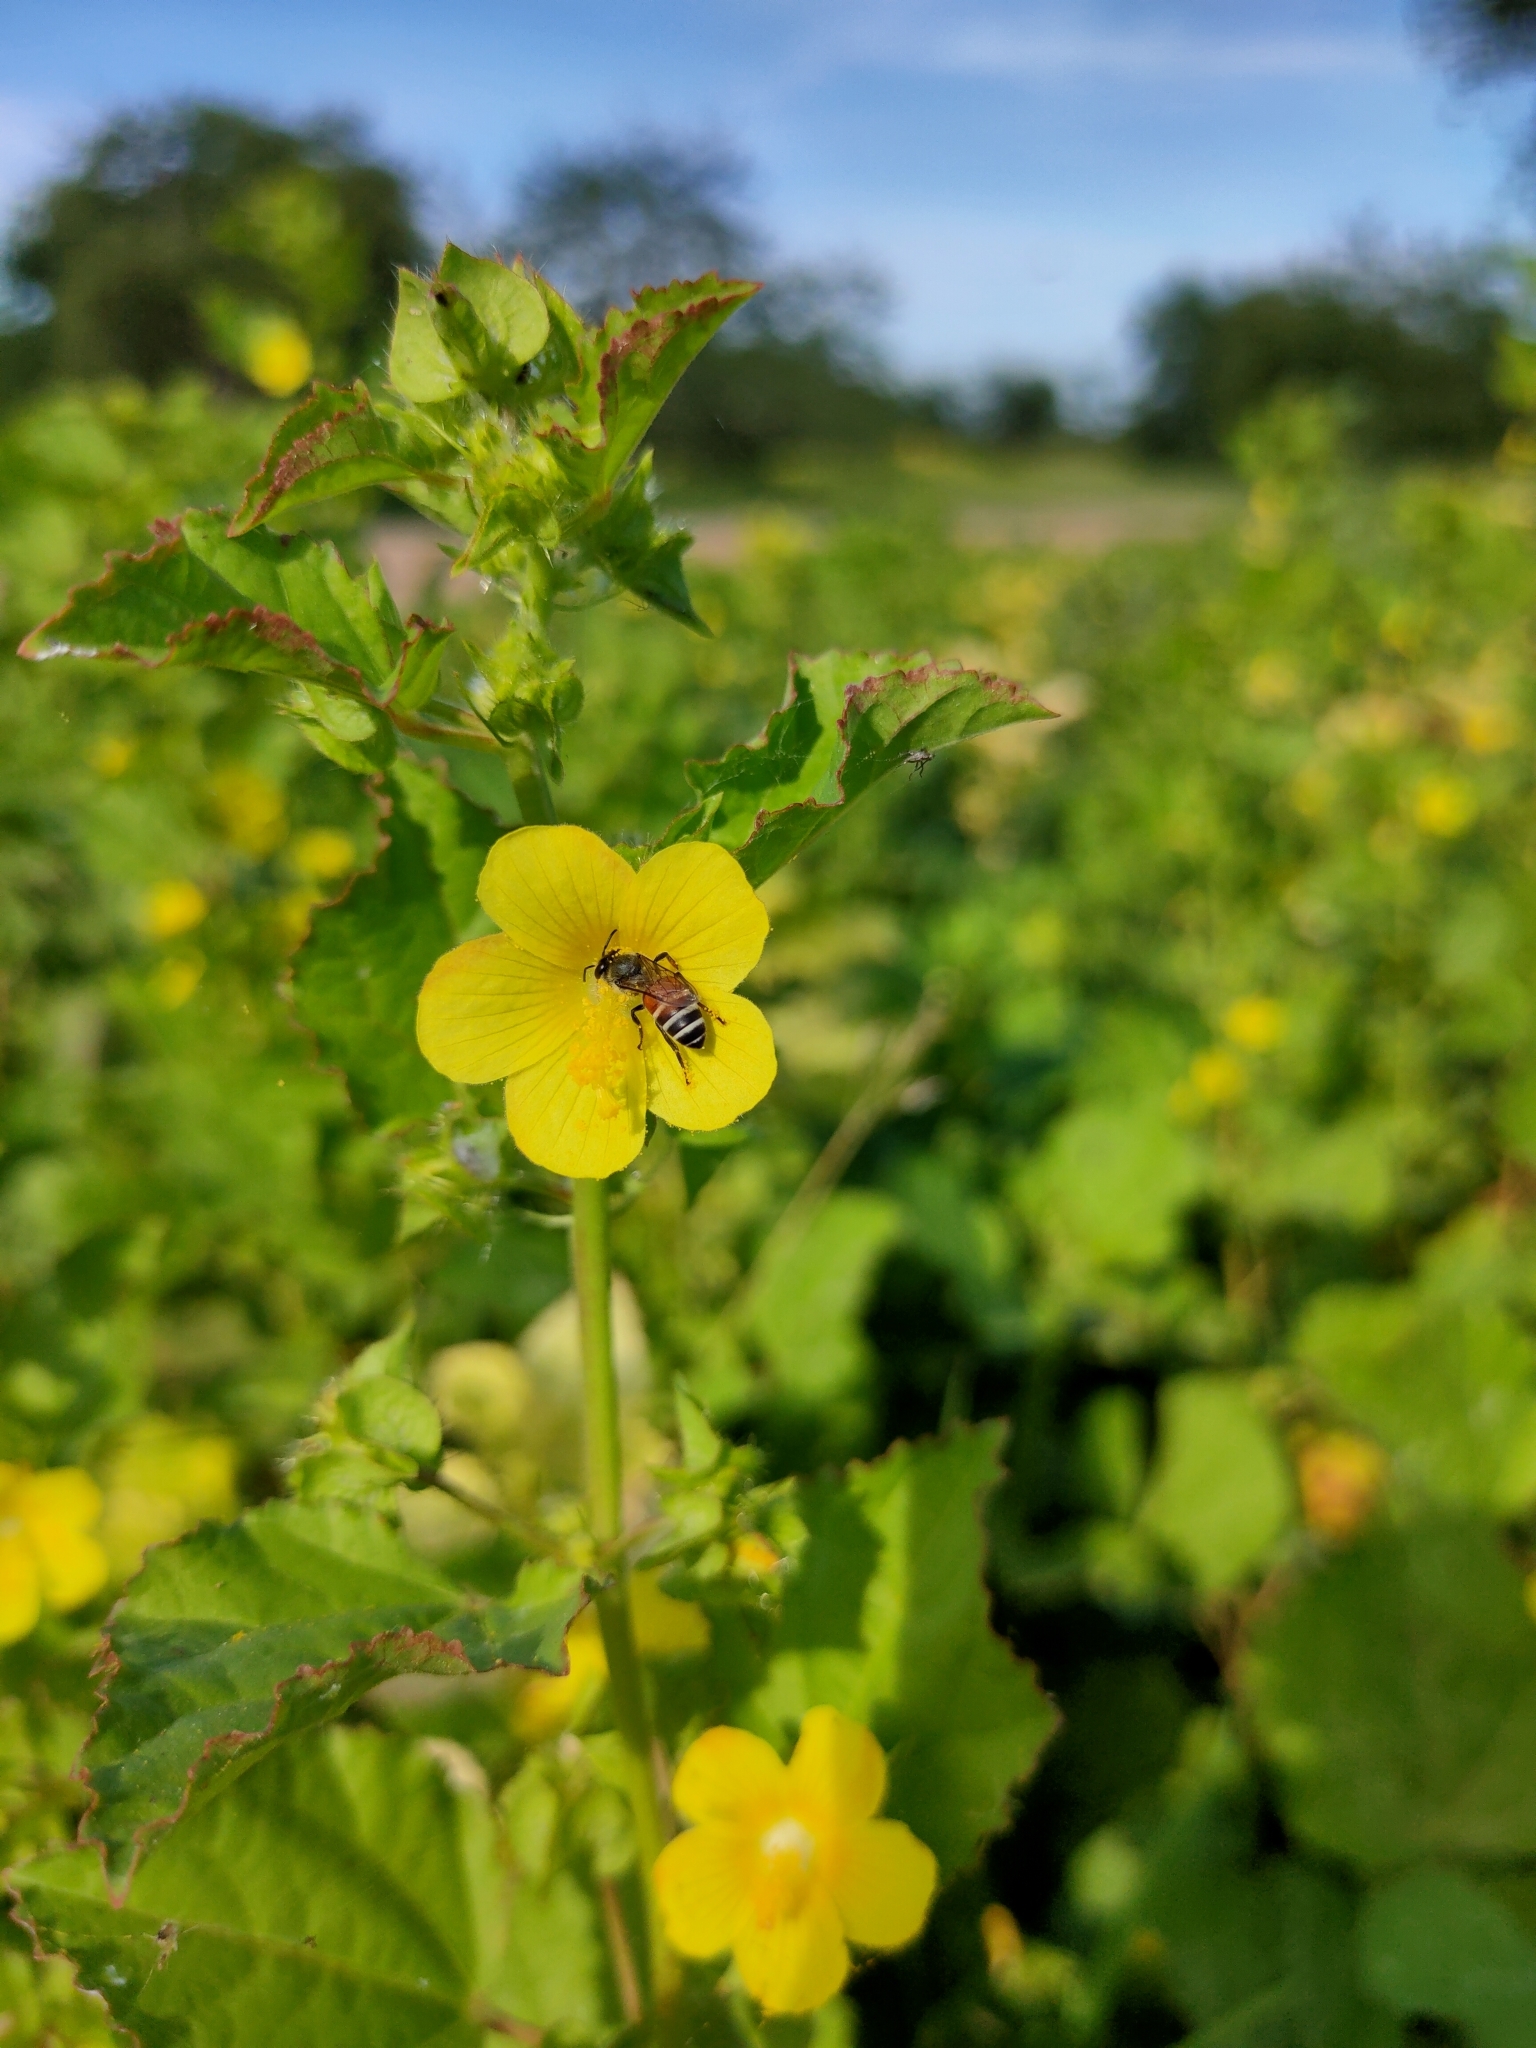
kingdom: Animalia
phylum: Arthropoda
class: Insecta
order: Hymenoptera
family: Apidae
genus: Apis
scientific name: Apis florea
